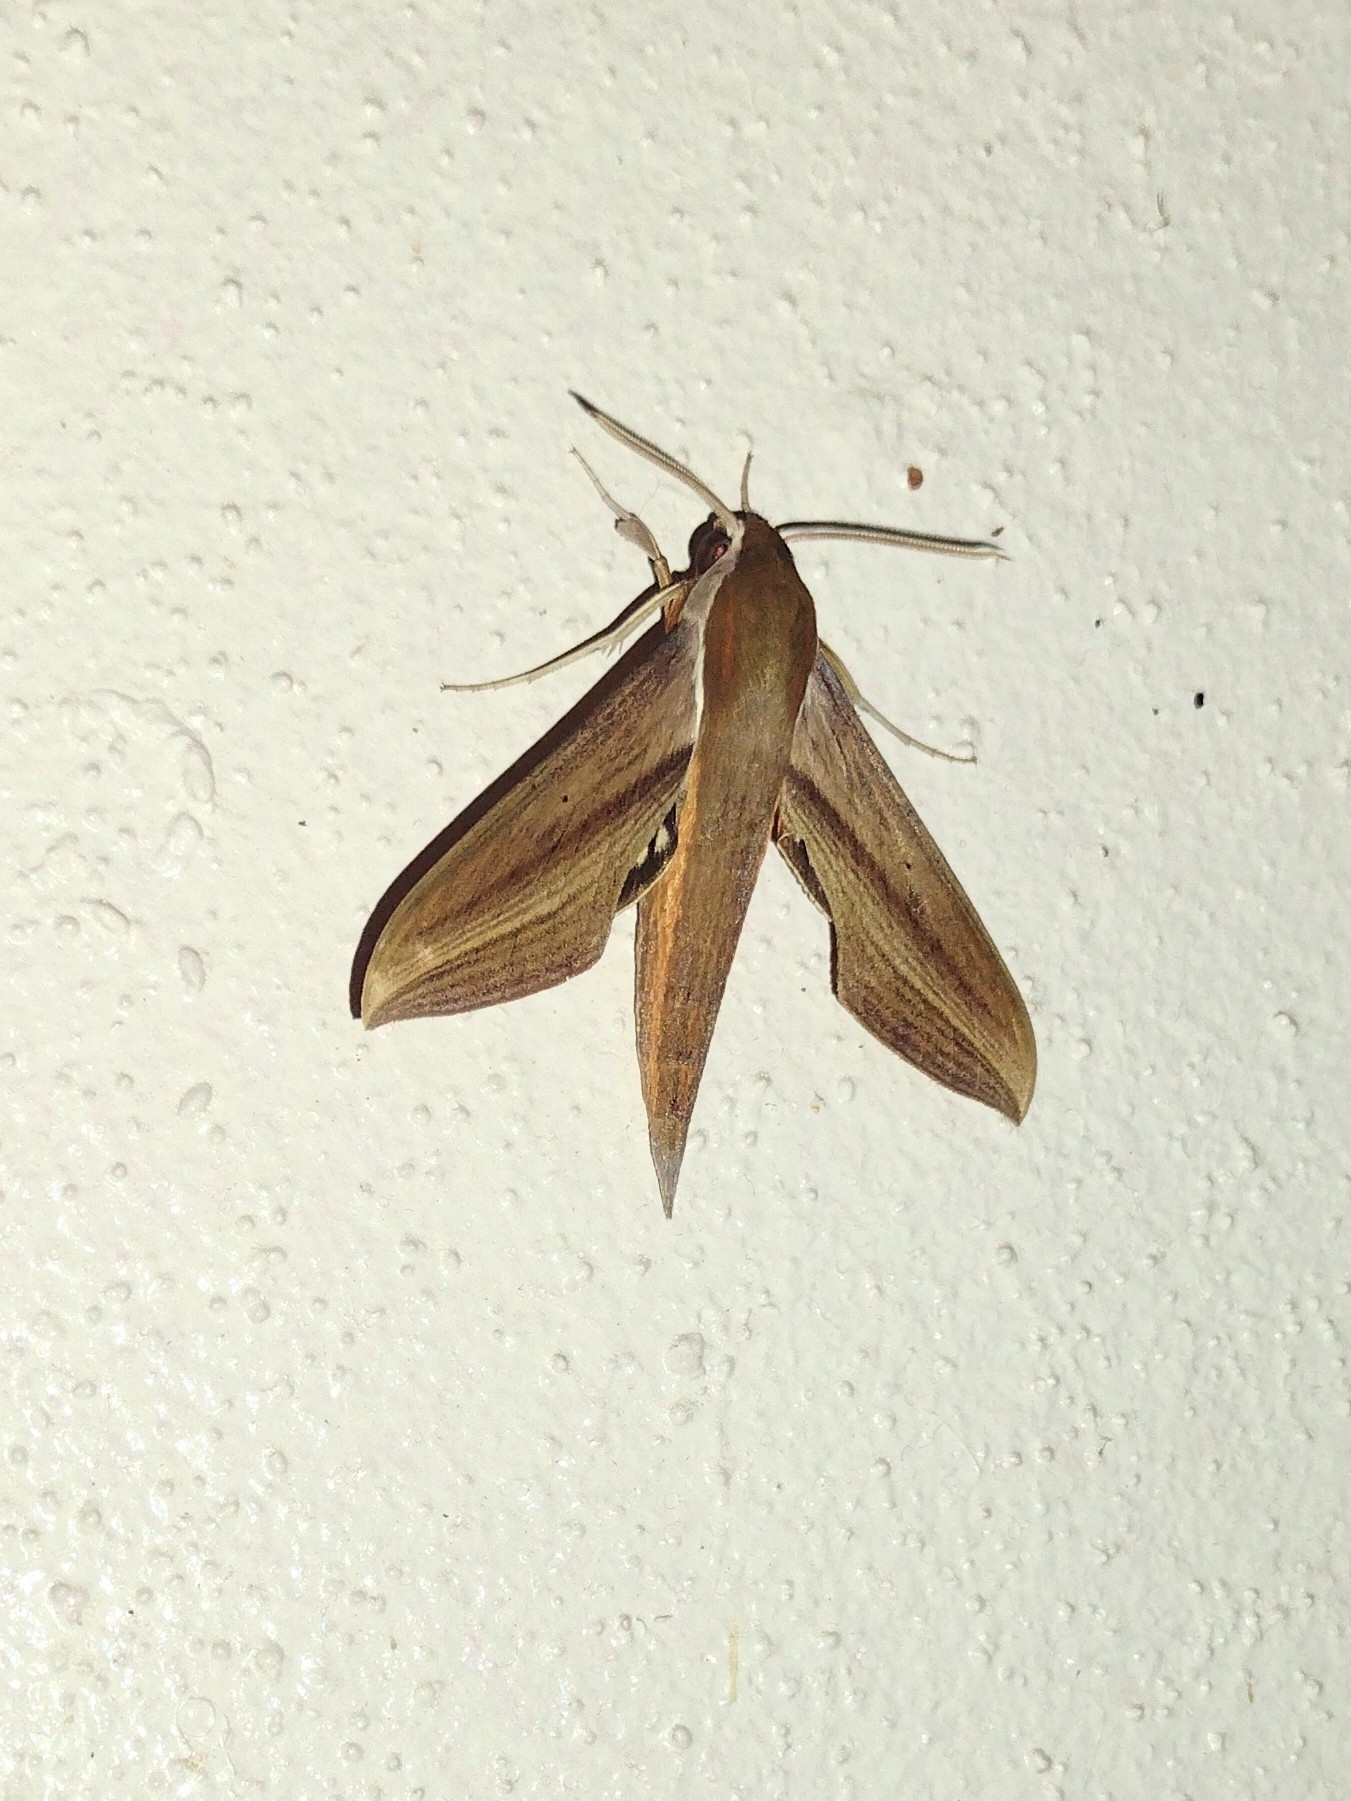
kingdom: Animalia
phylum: Arthropoda
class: Insecta
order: Lepidoptera
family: Sphingidae
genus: Xylophanes
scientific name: Xylophanes tersa
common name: Tersa sphinx
